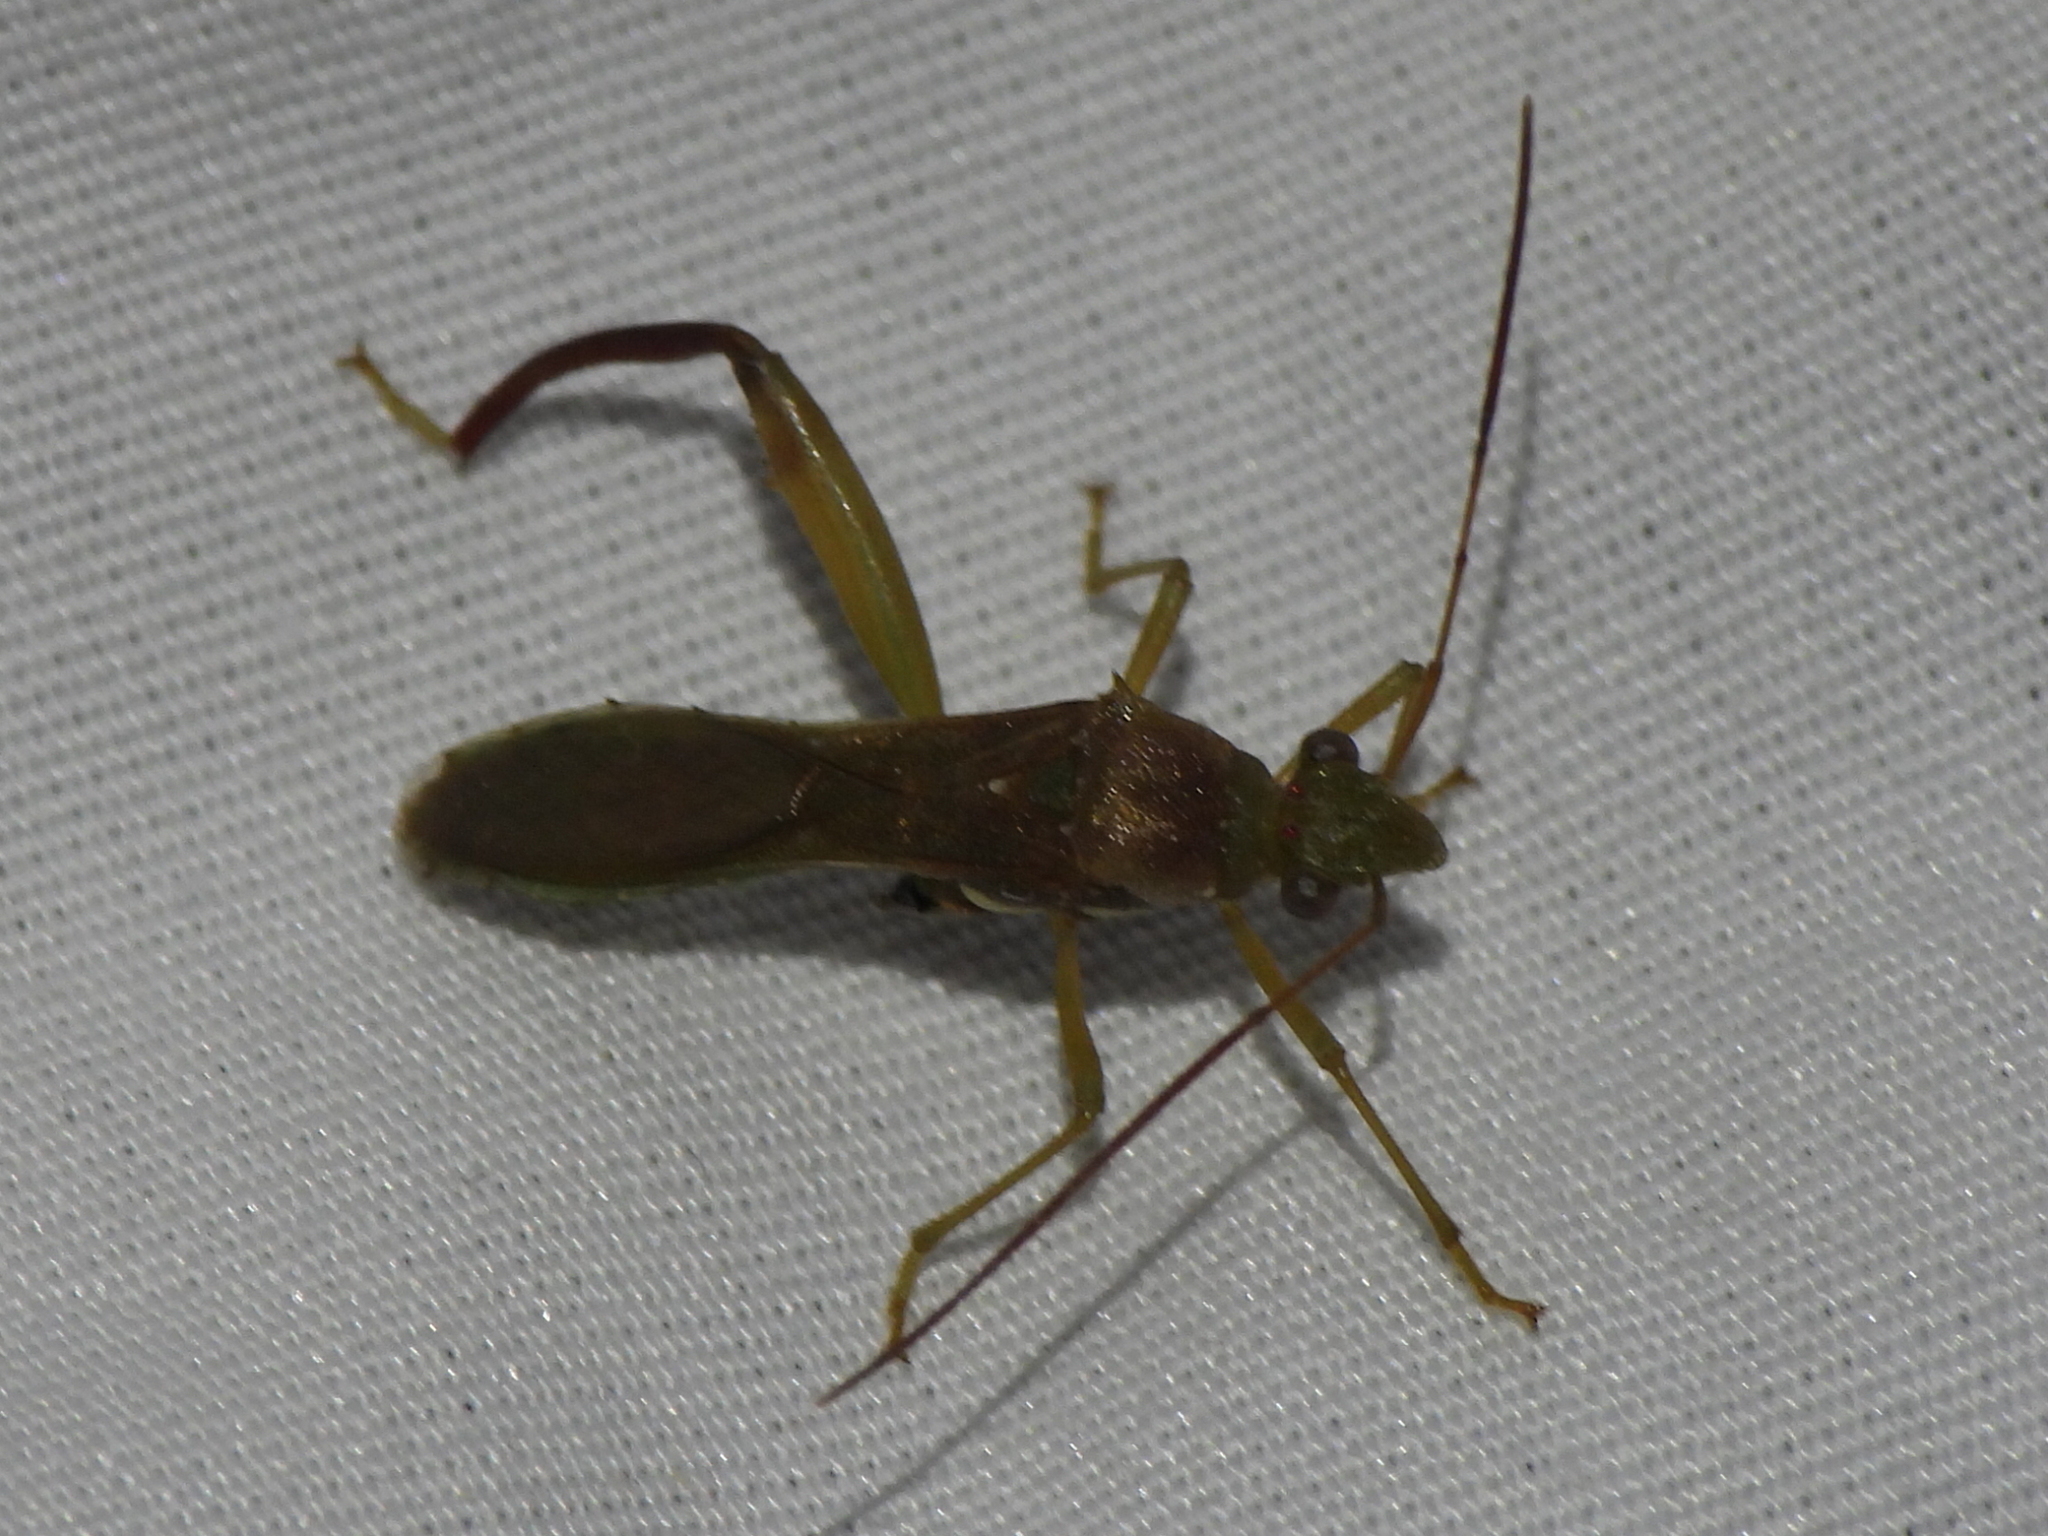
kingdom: Animalia
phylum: Arthropoda
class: Insecta
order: Hemiptera
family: Alydidae
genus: Hyalymenus
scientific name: Hyalymenus tarsatus
